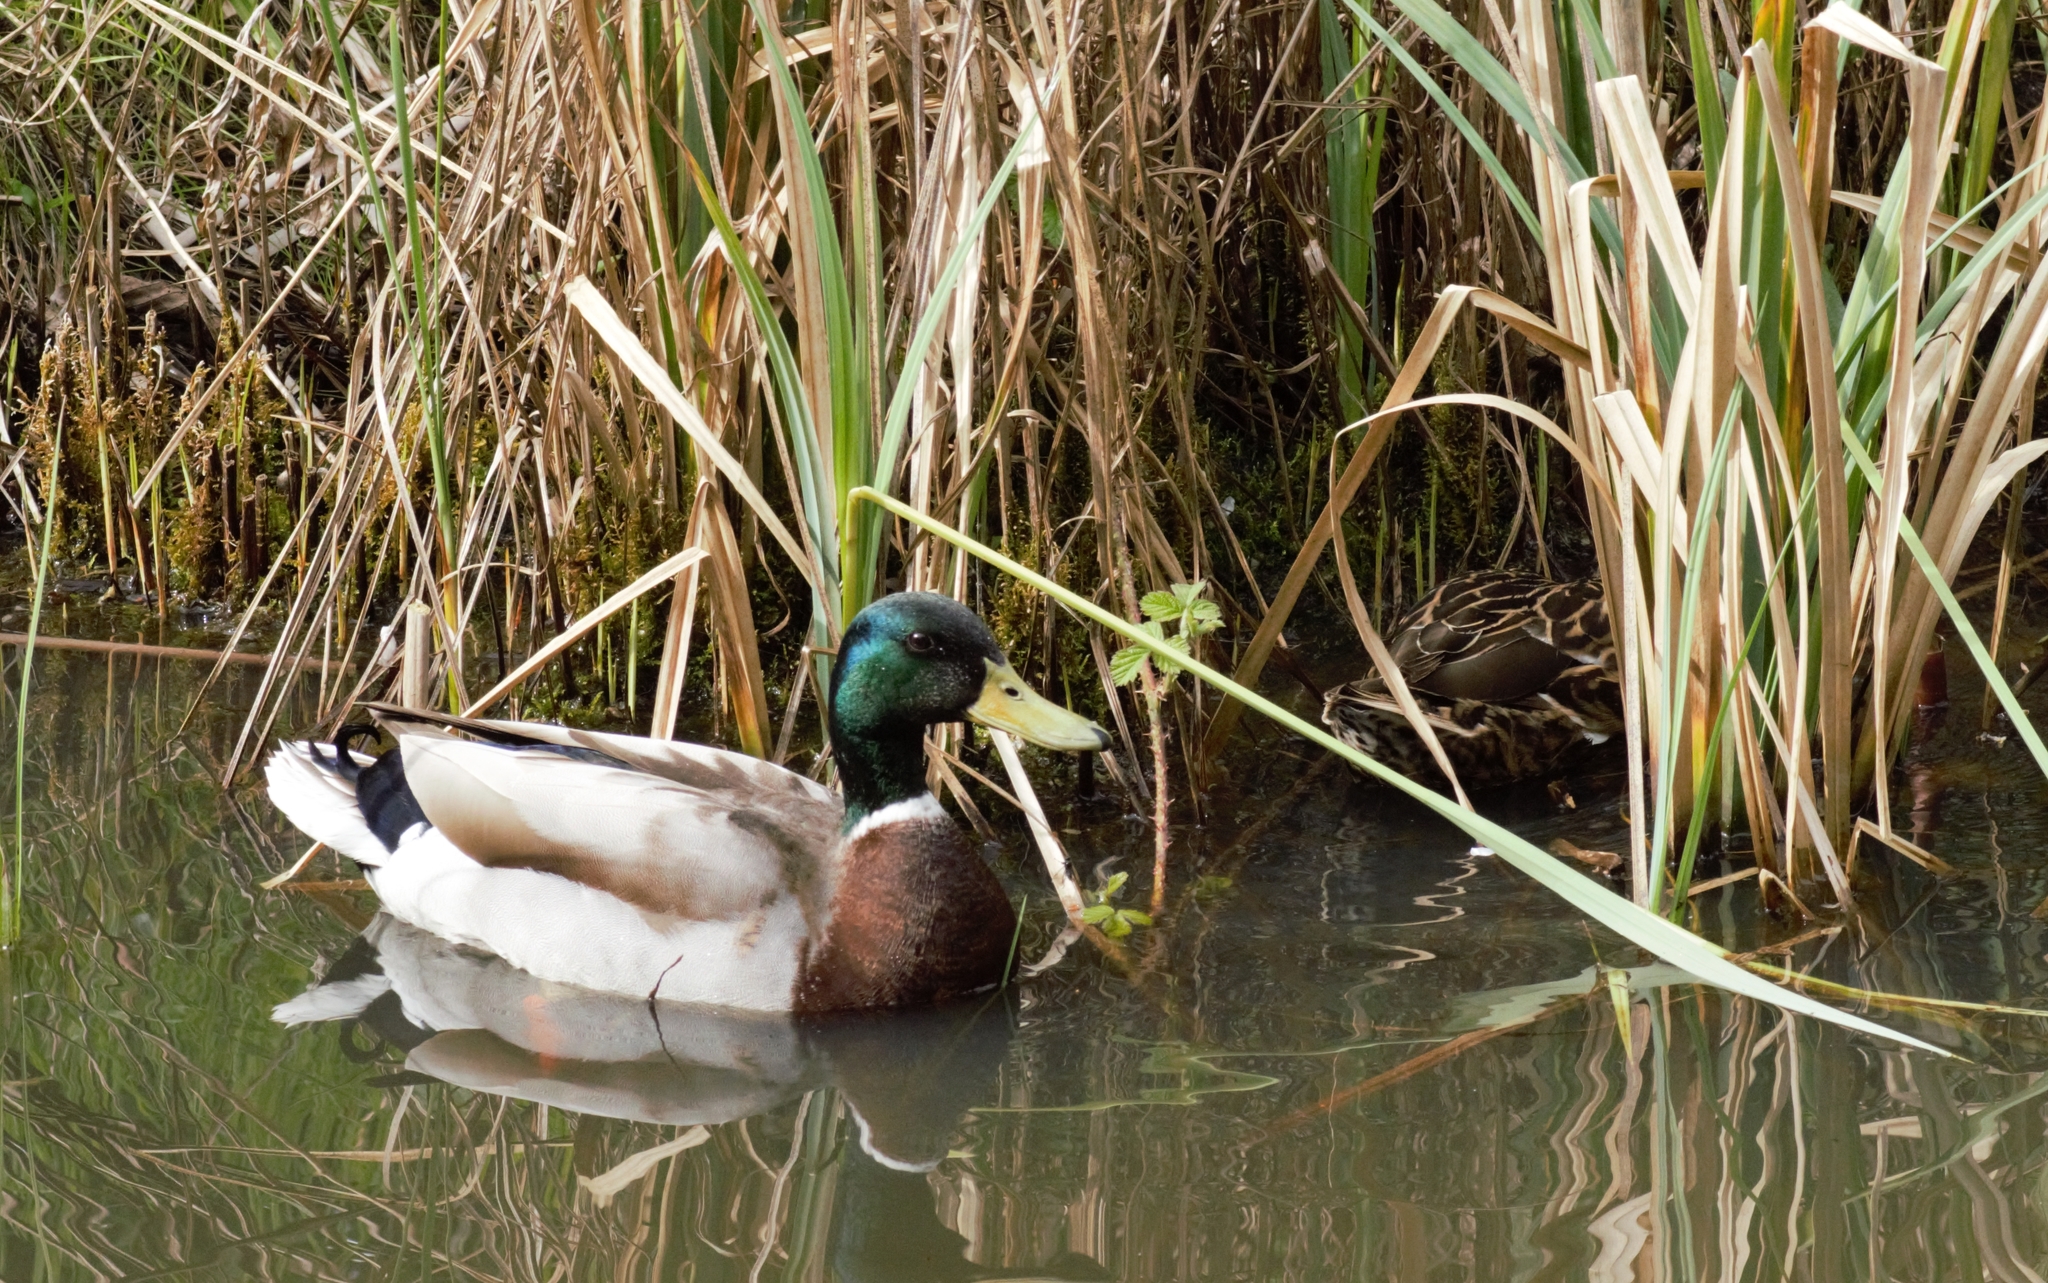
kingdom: Animalia
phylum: Chordata
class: Aves
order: Anseriformes
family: Anatidae
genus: Anas
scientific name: Anas platyrhynchos
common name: Mallard
